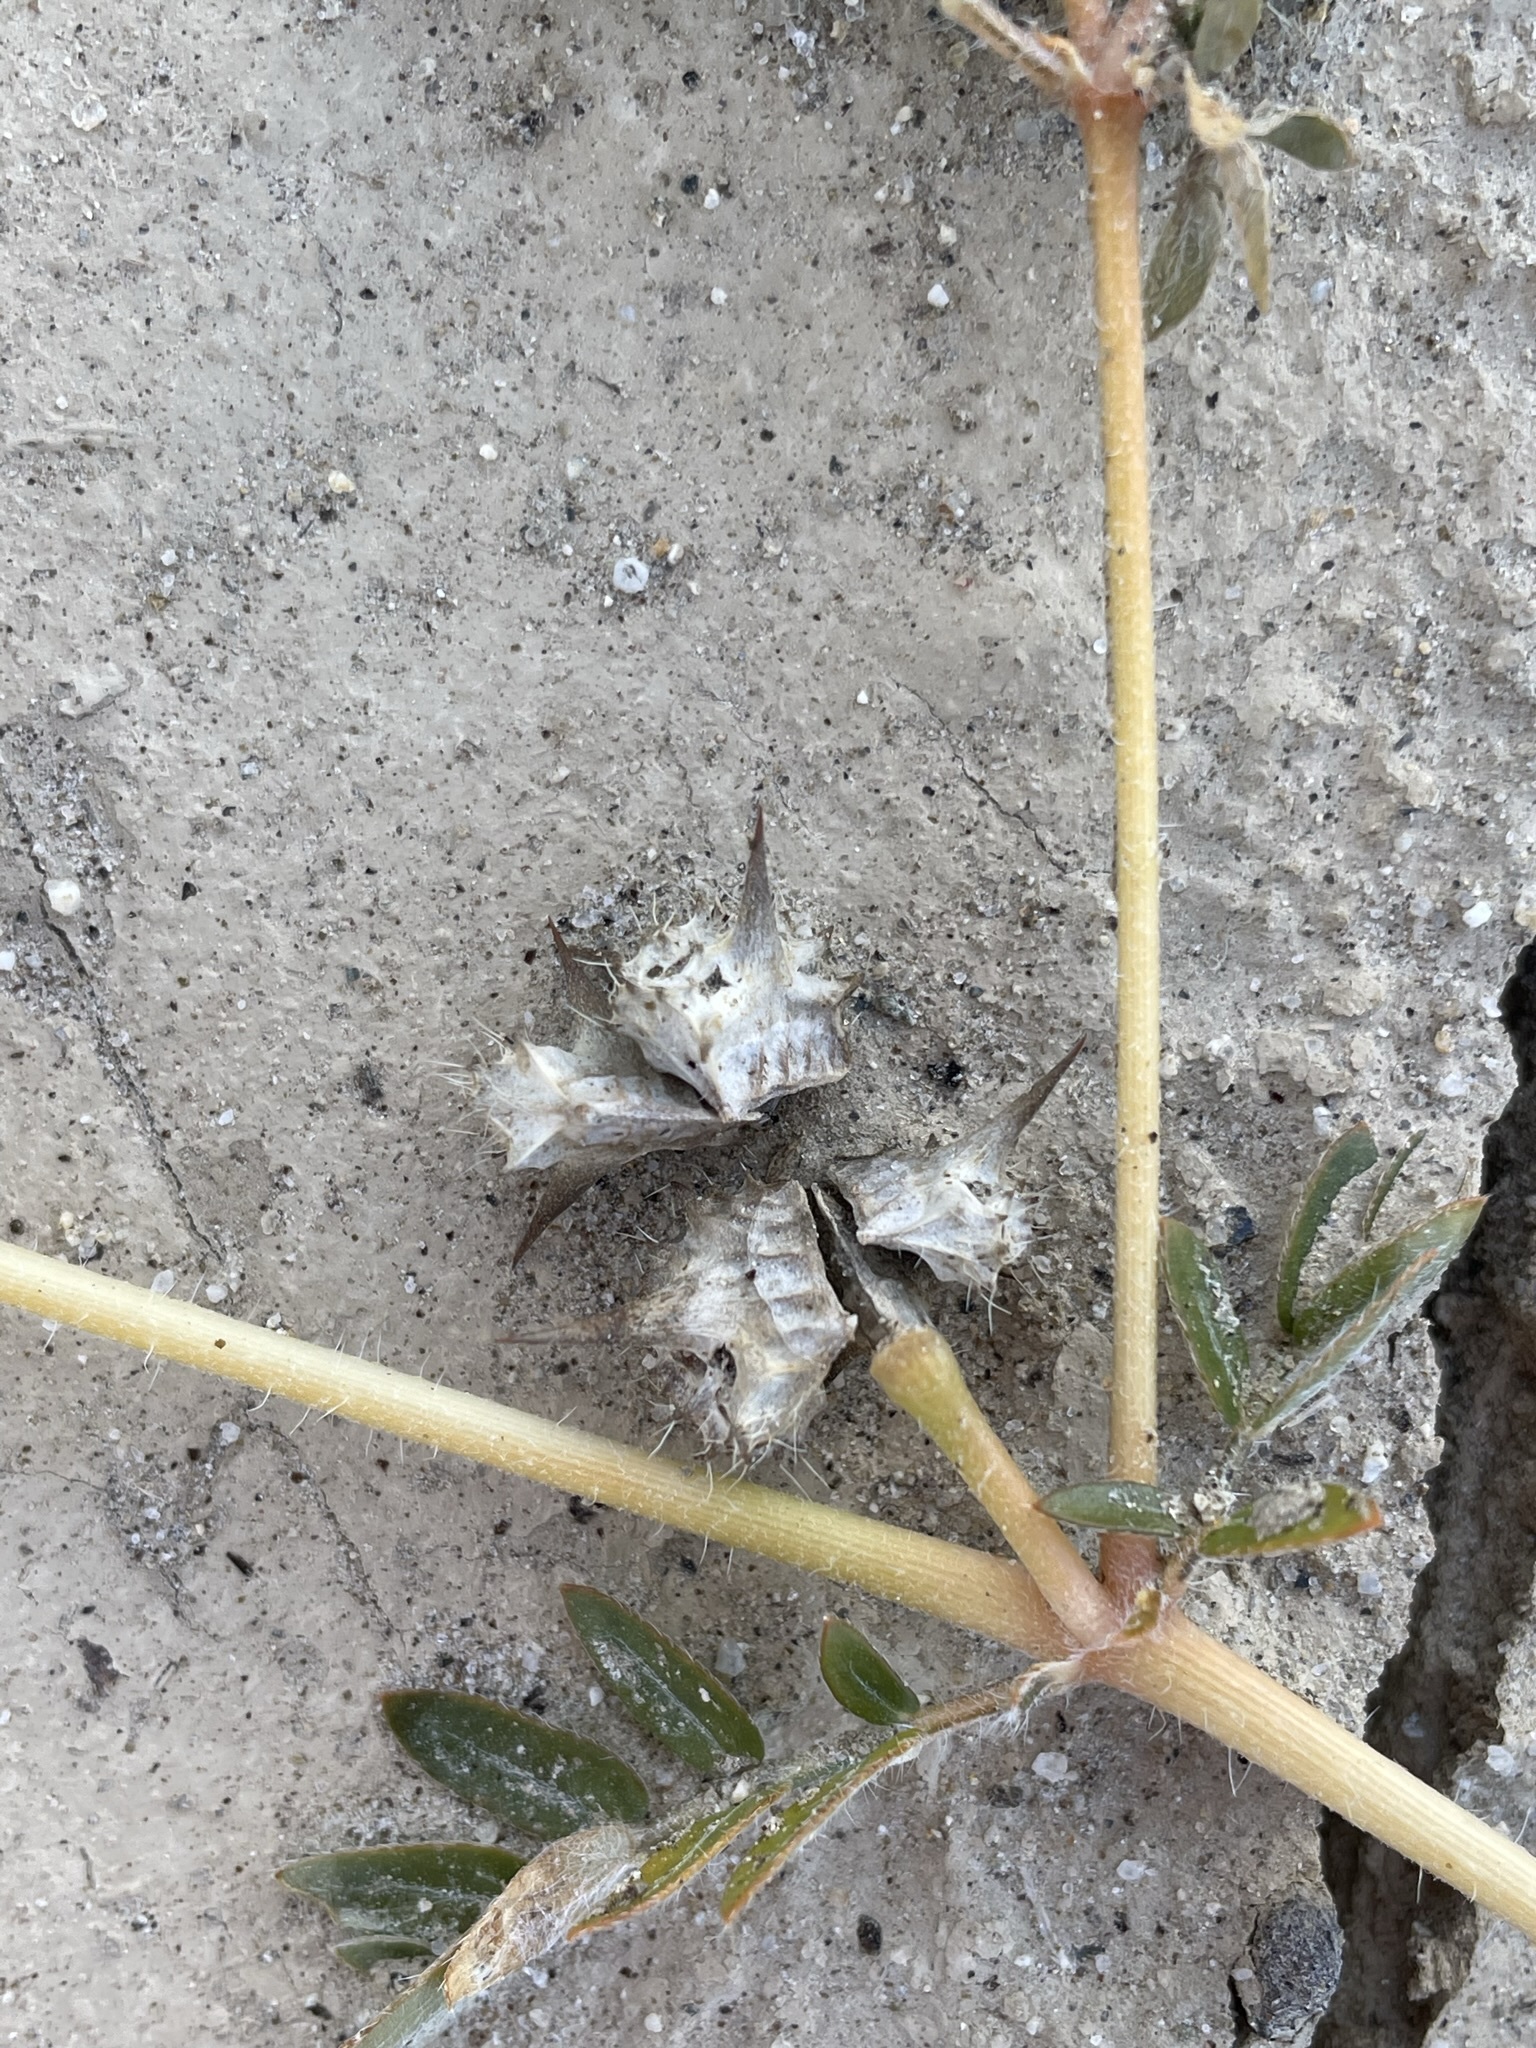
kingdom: Plantae
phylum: Tracheophyta
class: Magnoliopsida
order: Zygophyllales
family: Zygophyllaceae
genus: Tribulus
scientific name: Tribulus terrestris
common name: Puncturevine
